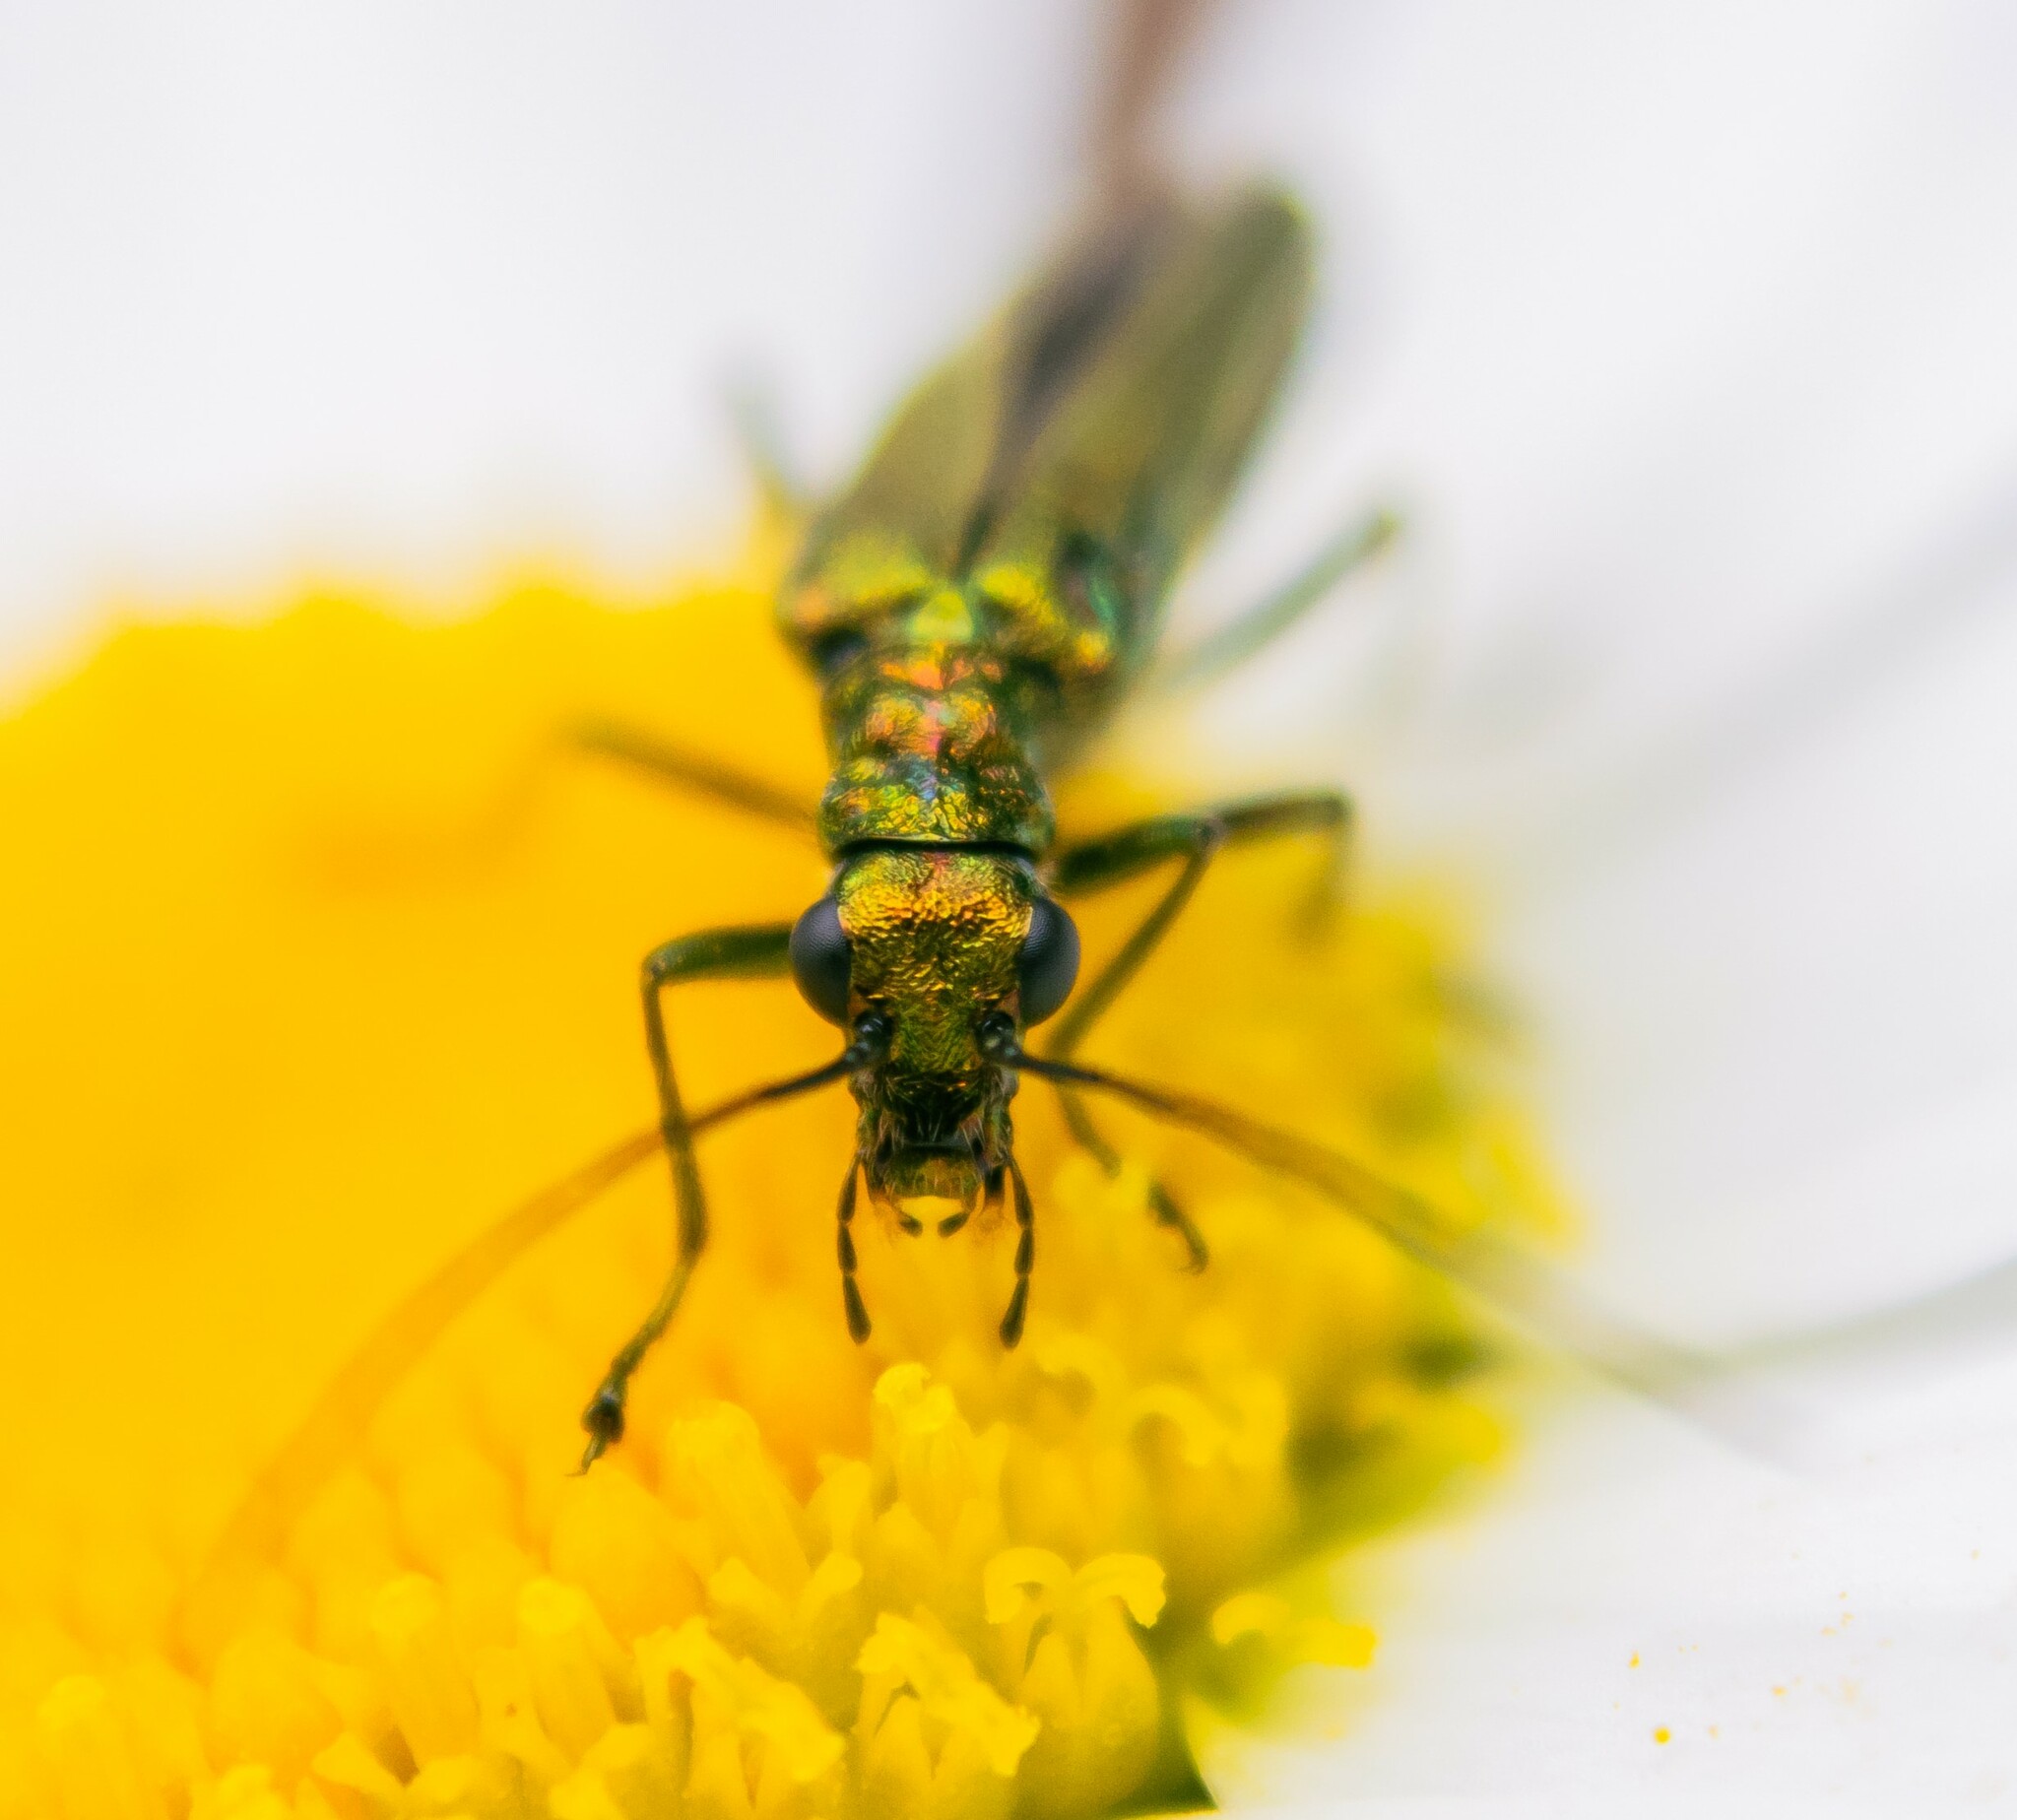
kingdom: Animalia
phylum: Arthropoda
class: Insecta
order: Coleoptera
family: Oedemeridae
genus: Oedemera
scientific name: Oedemera nobilis
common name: Swollen-thighed beetle
